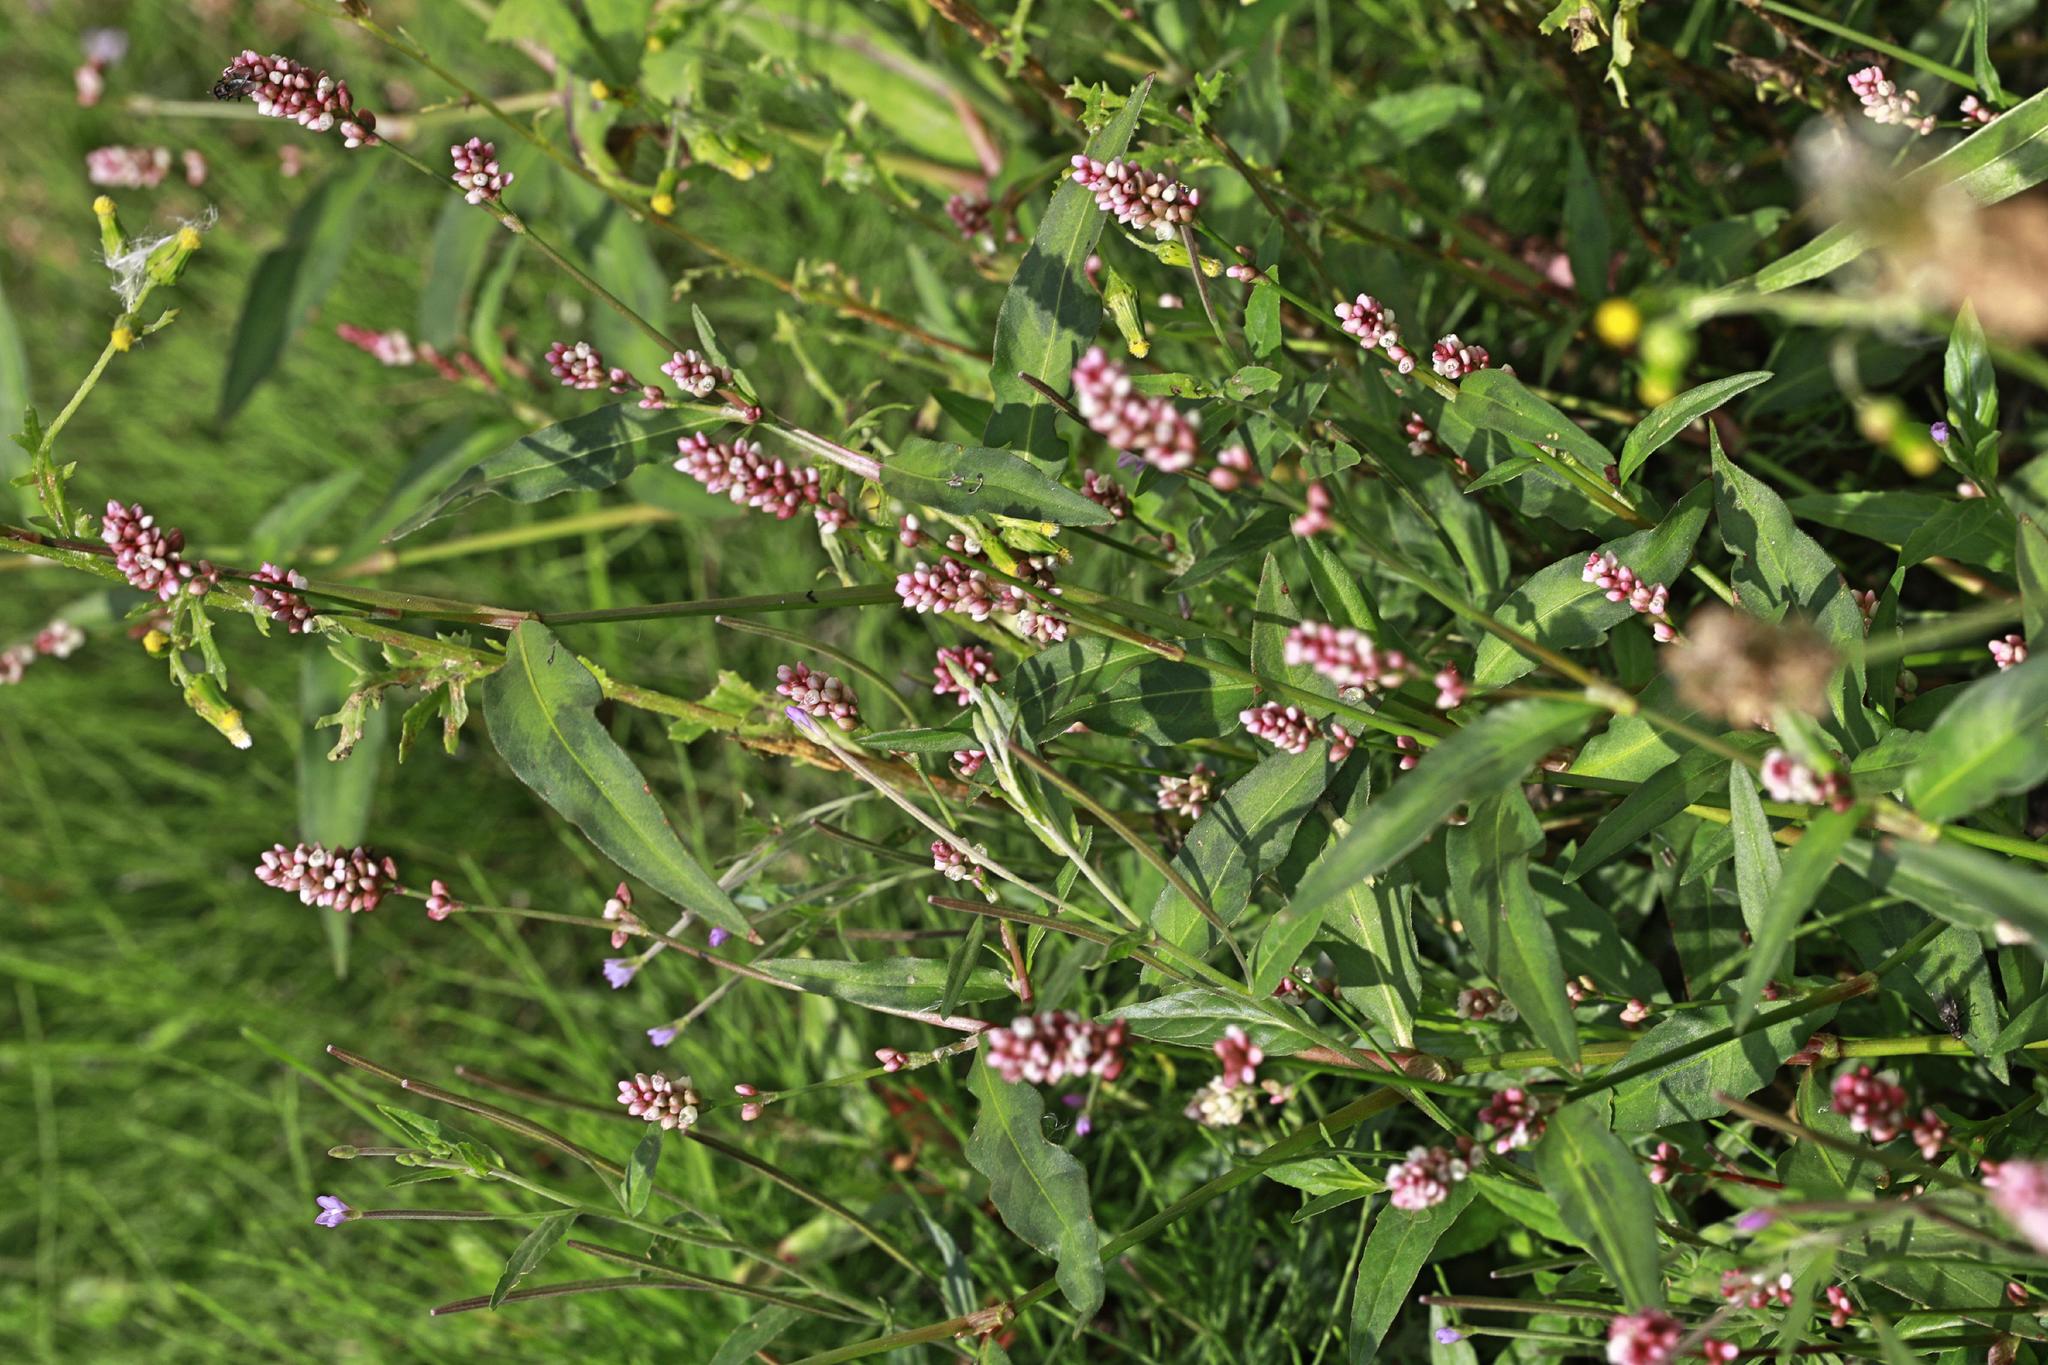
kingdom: Plantae
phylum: Tracheophyta
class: Magnoliopsida
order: Caryophyllales
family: Polygonaceae
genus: Persicaria
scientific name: Persicaria maculosa
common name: Redshank
